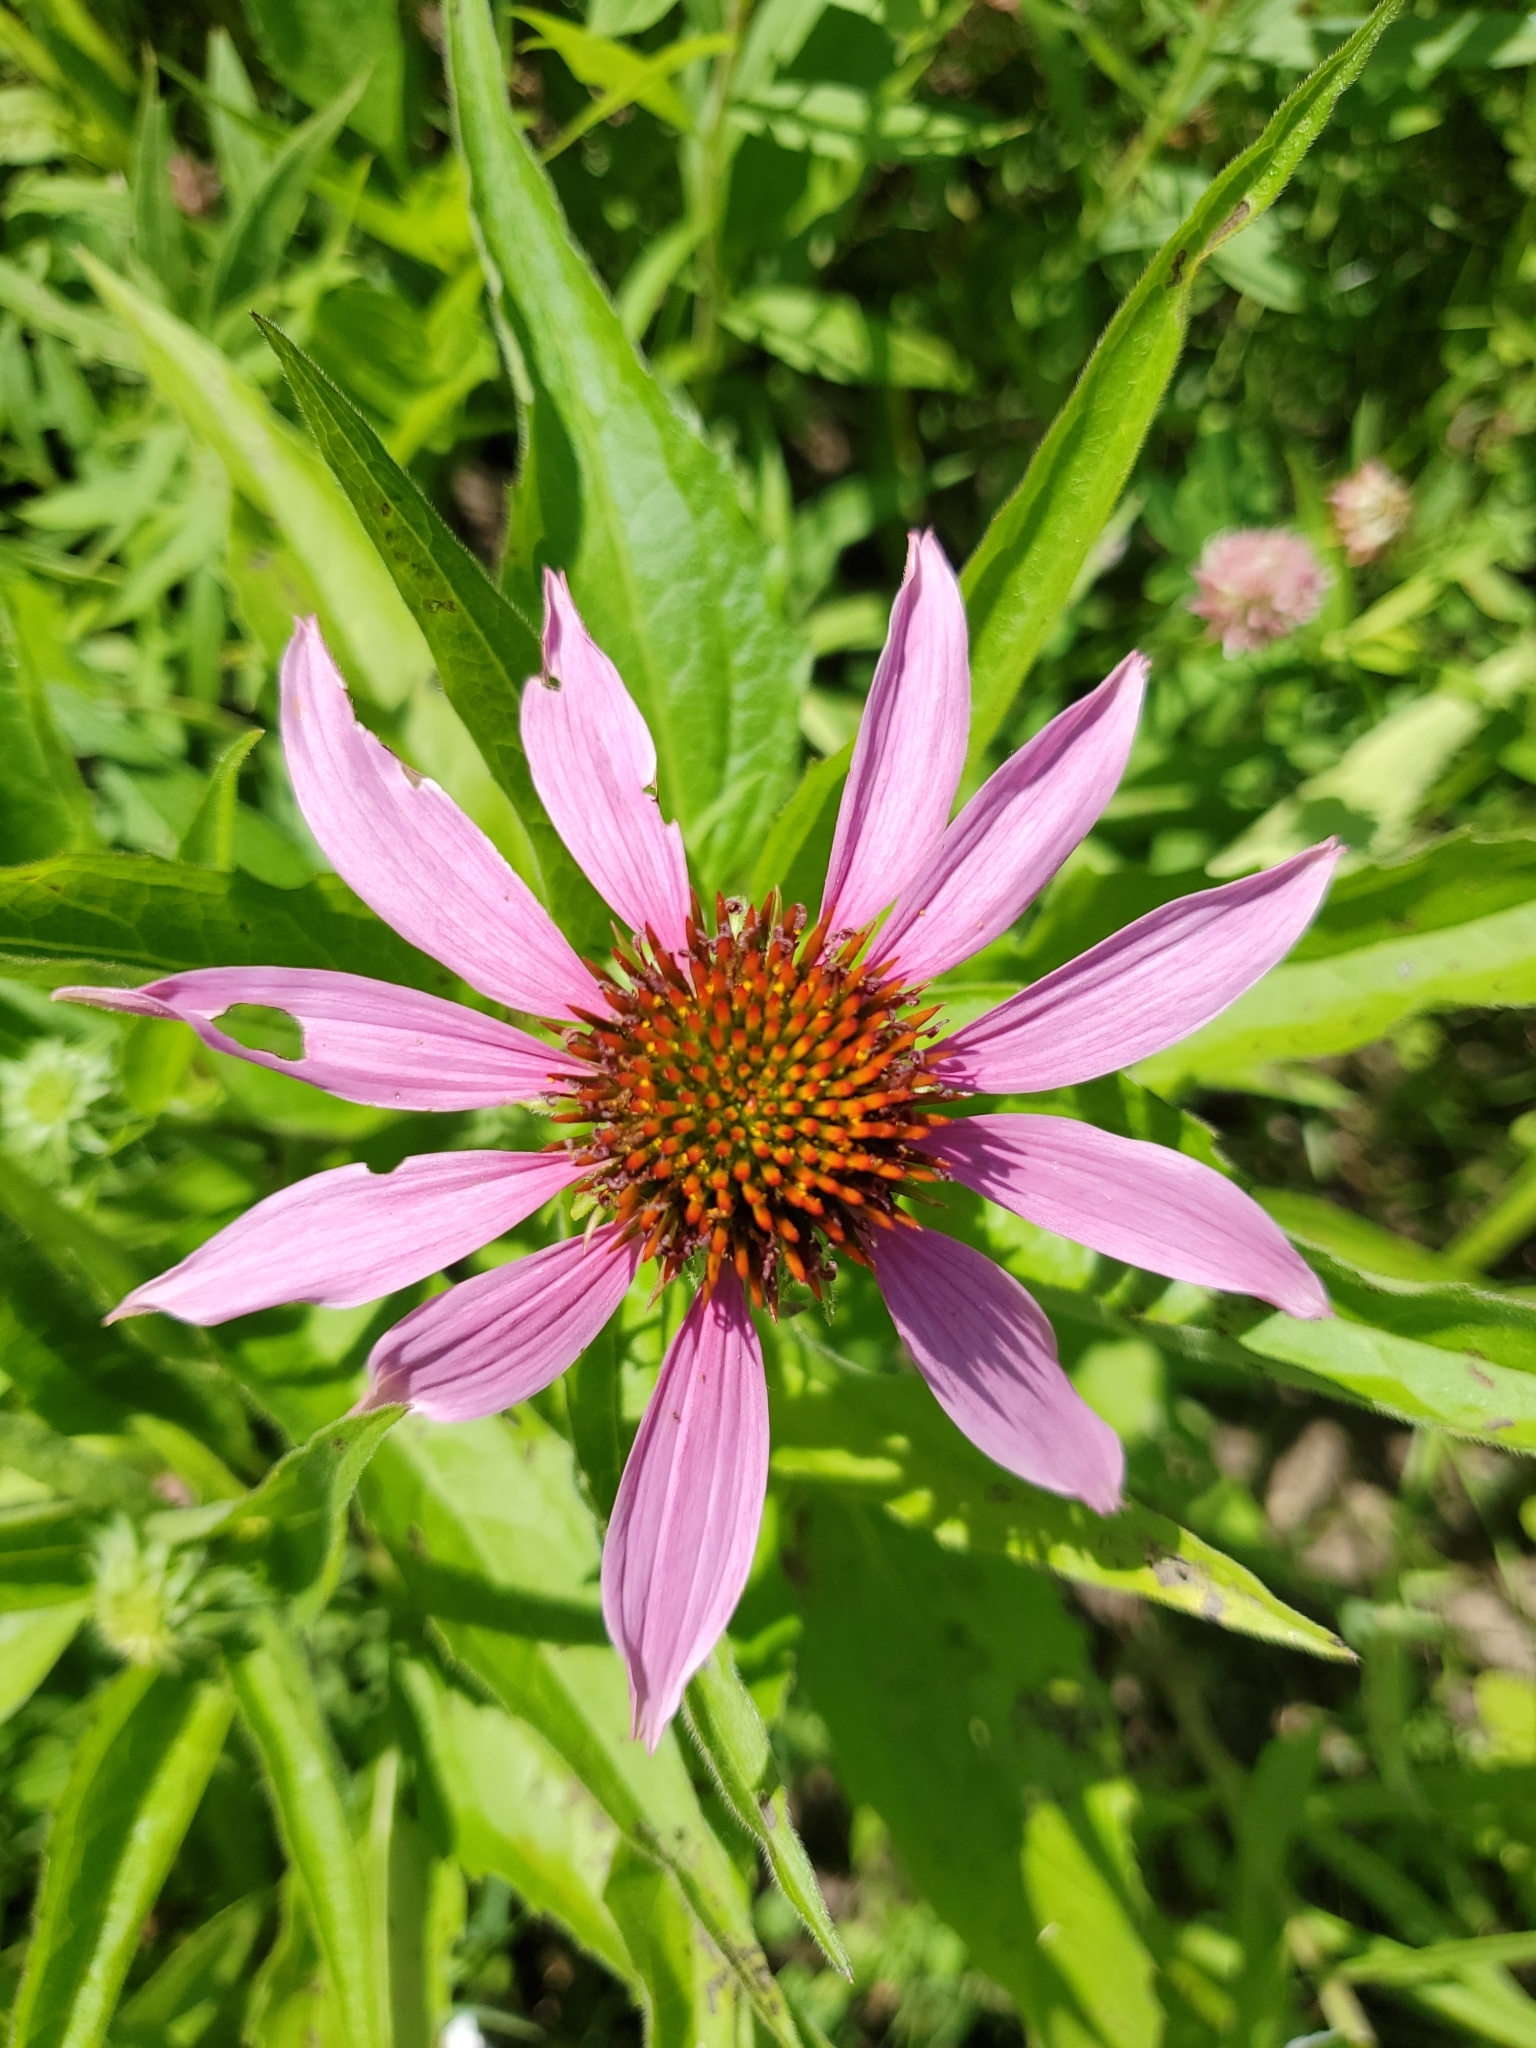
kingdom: Plantae
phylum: Tracheophyta
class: Magnoliopsida
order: Asterales
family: Asteraceae
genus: Echinacea
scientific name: Echinacea purpurea
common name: Broad-leaved purple coneflower
